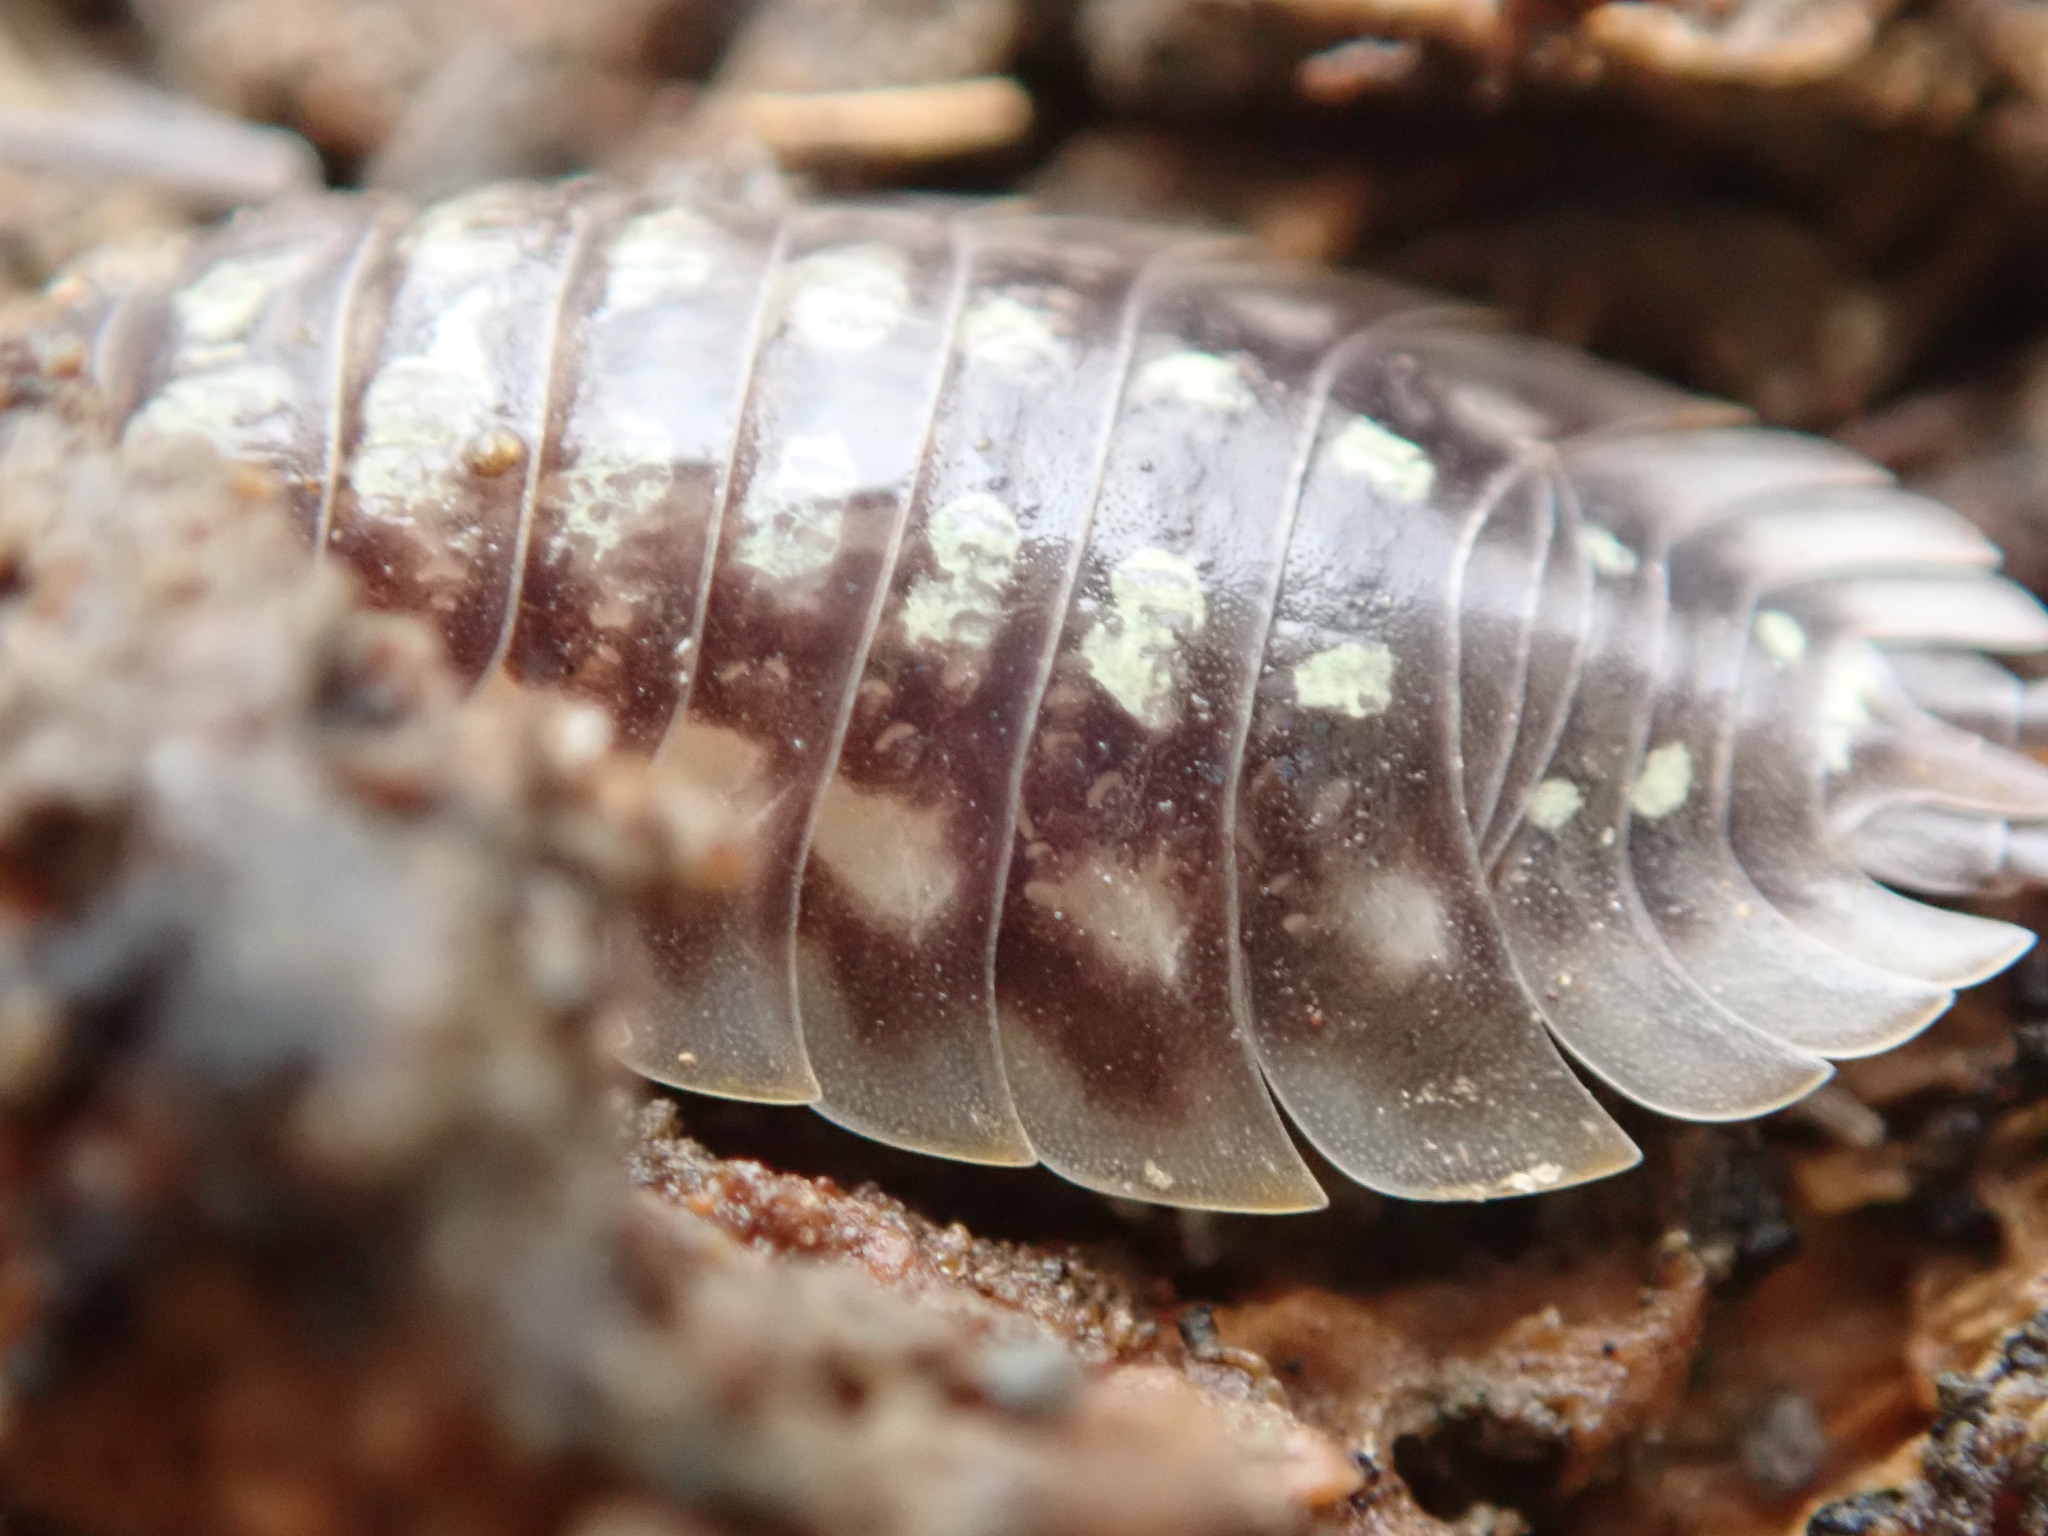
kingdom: Animalia
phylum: Arthropoda
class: Malacostraca
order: Isopoda
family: Oniscidae
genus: Oniscus
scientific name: Oniscus asellus
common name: Common shiny woodlouse
